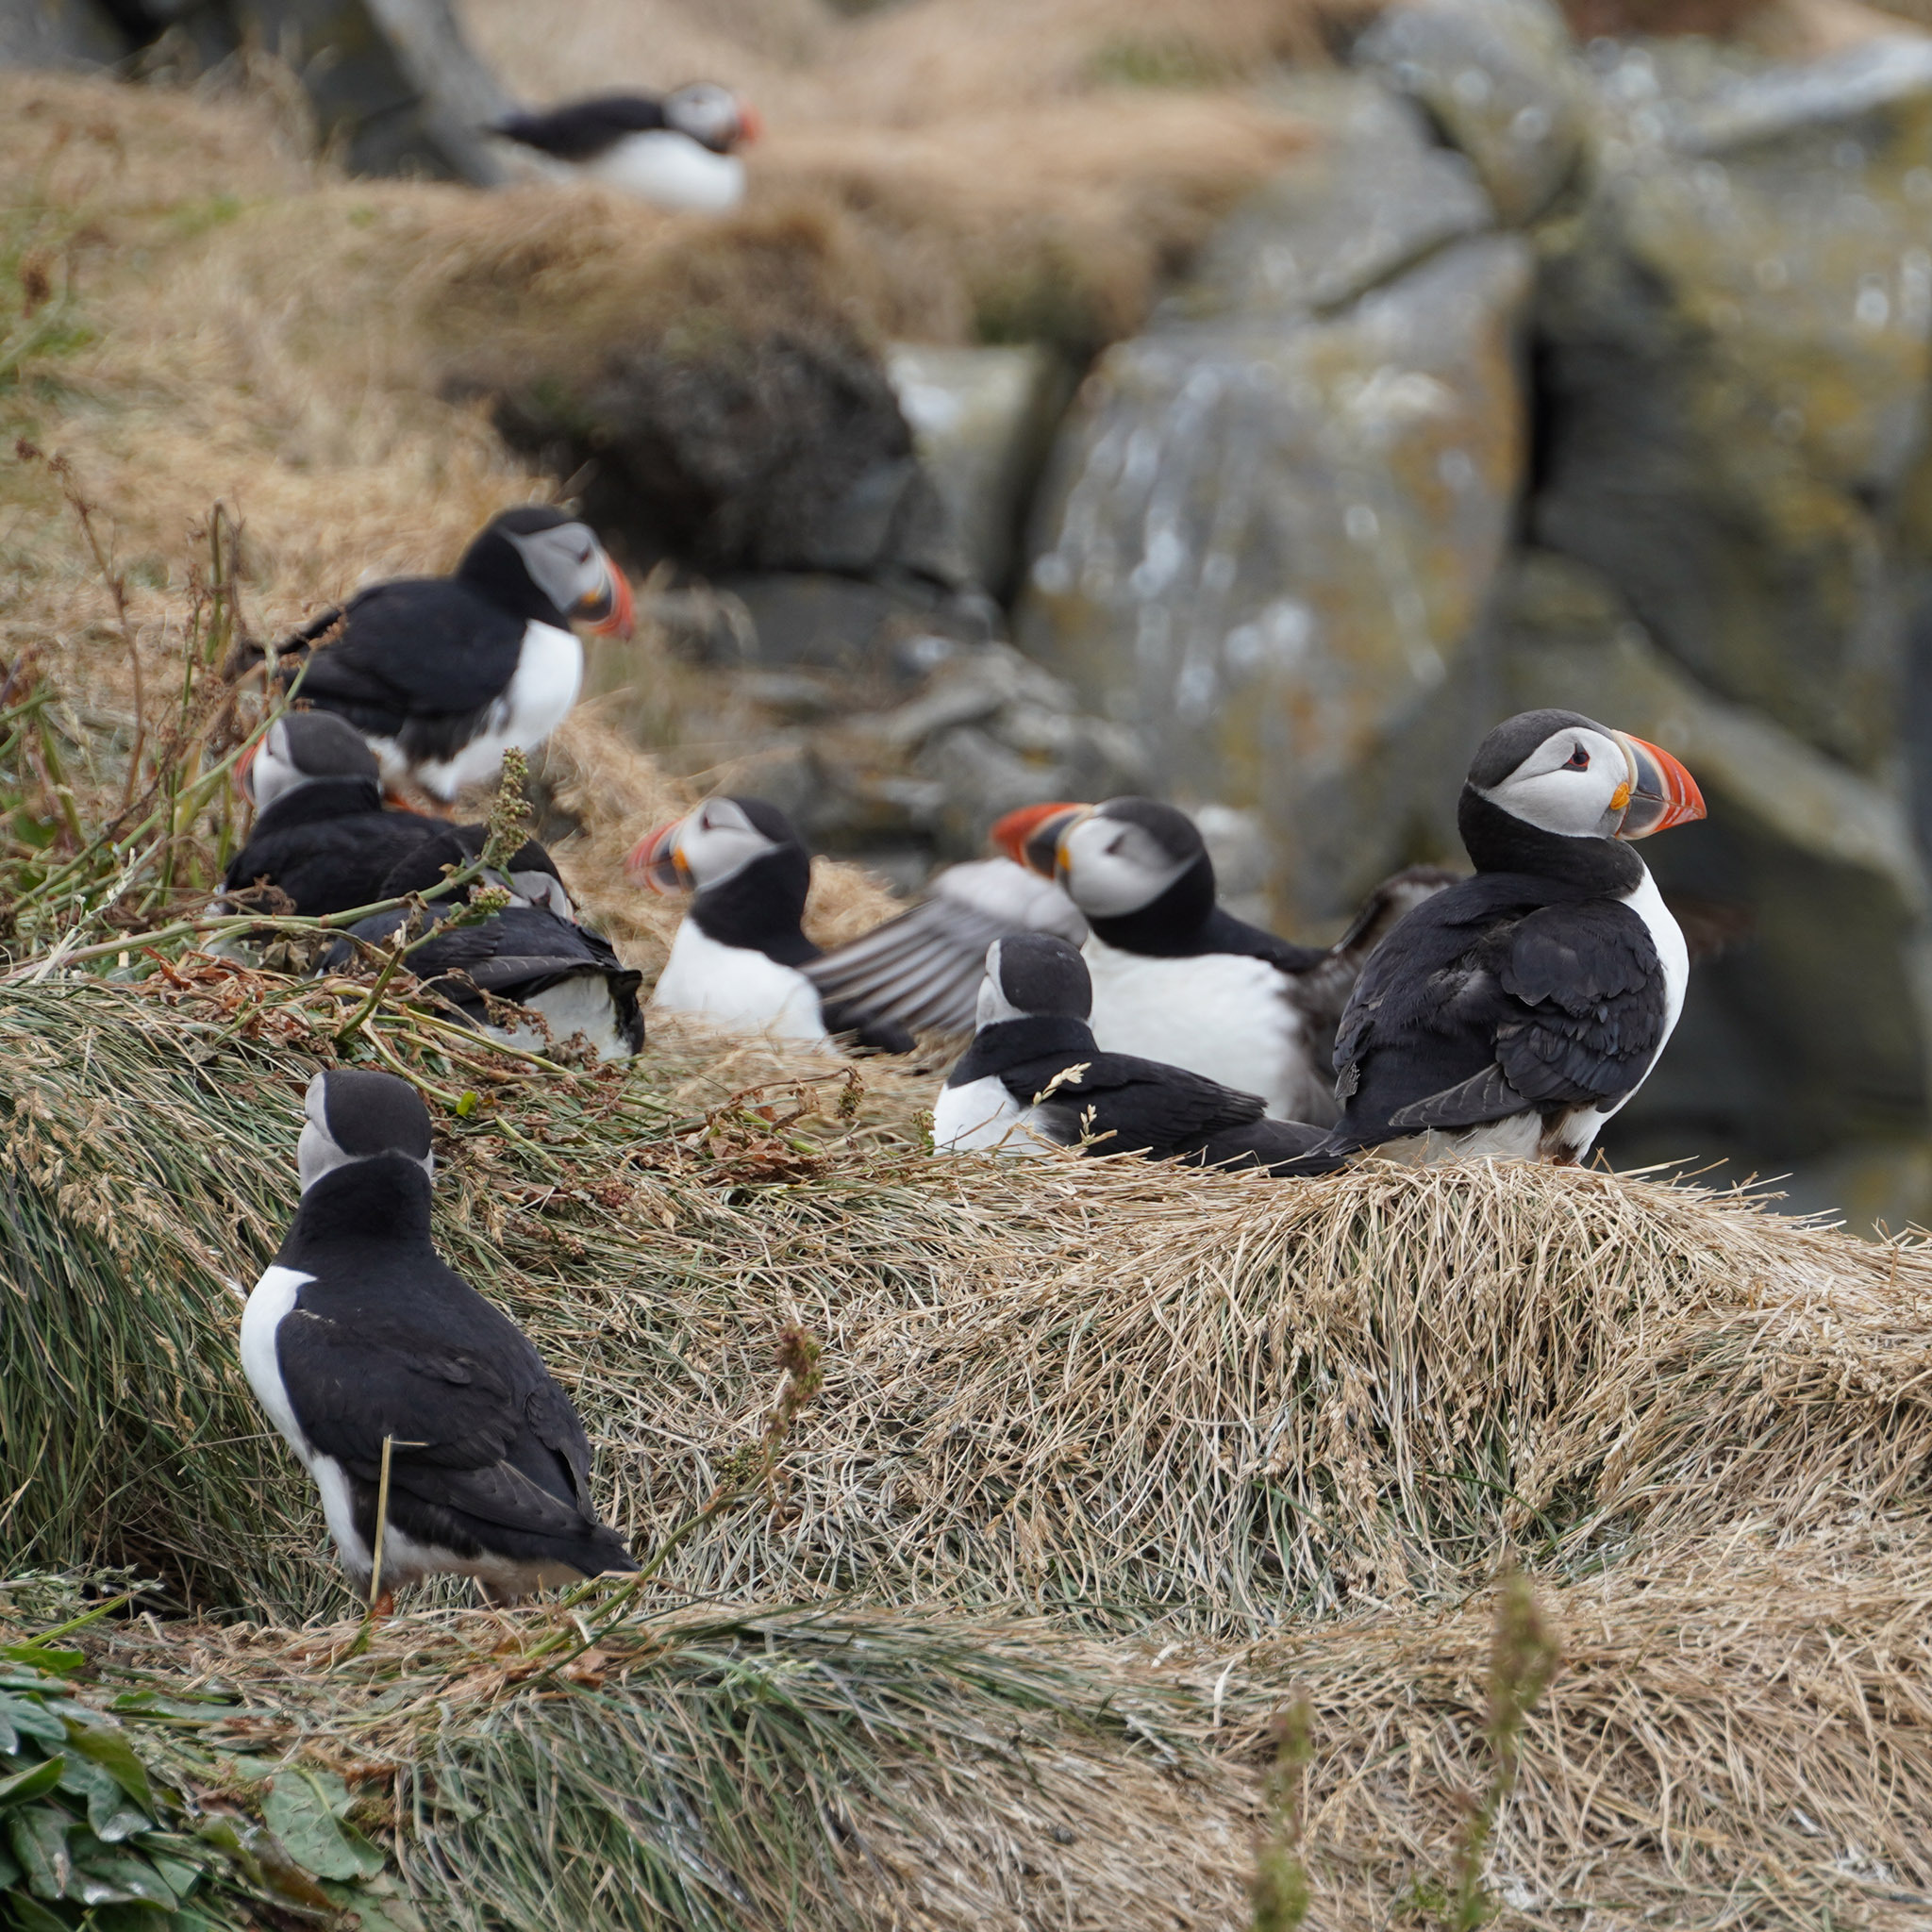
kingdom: Animalia
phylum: Chordata
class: Aves
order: Charadriiformes
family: Alcidae
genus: Fratercula
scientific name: Fratercula arctica
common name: Atlantic puffin
